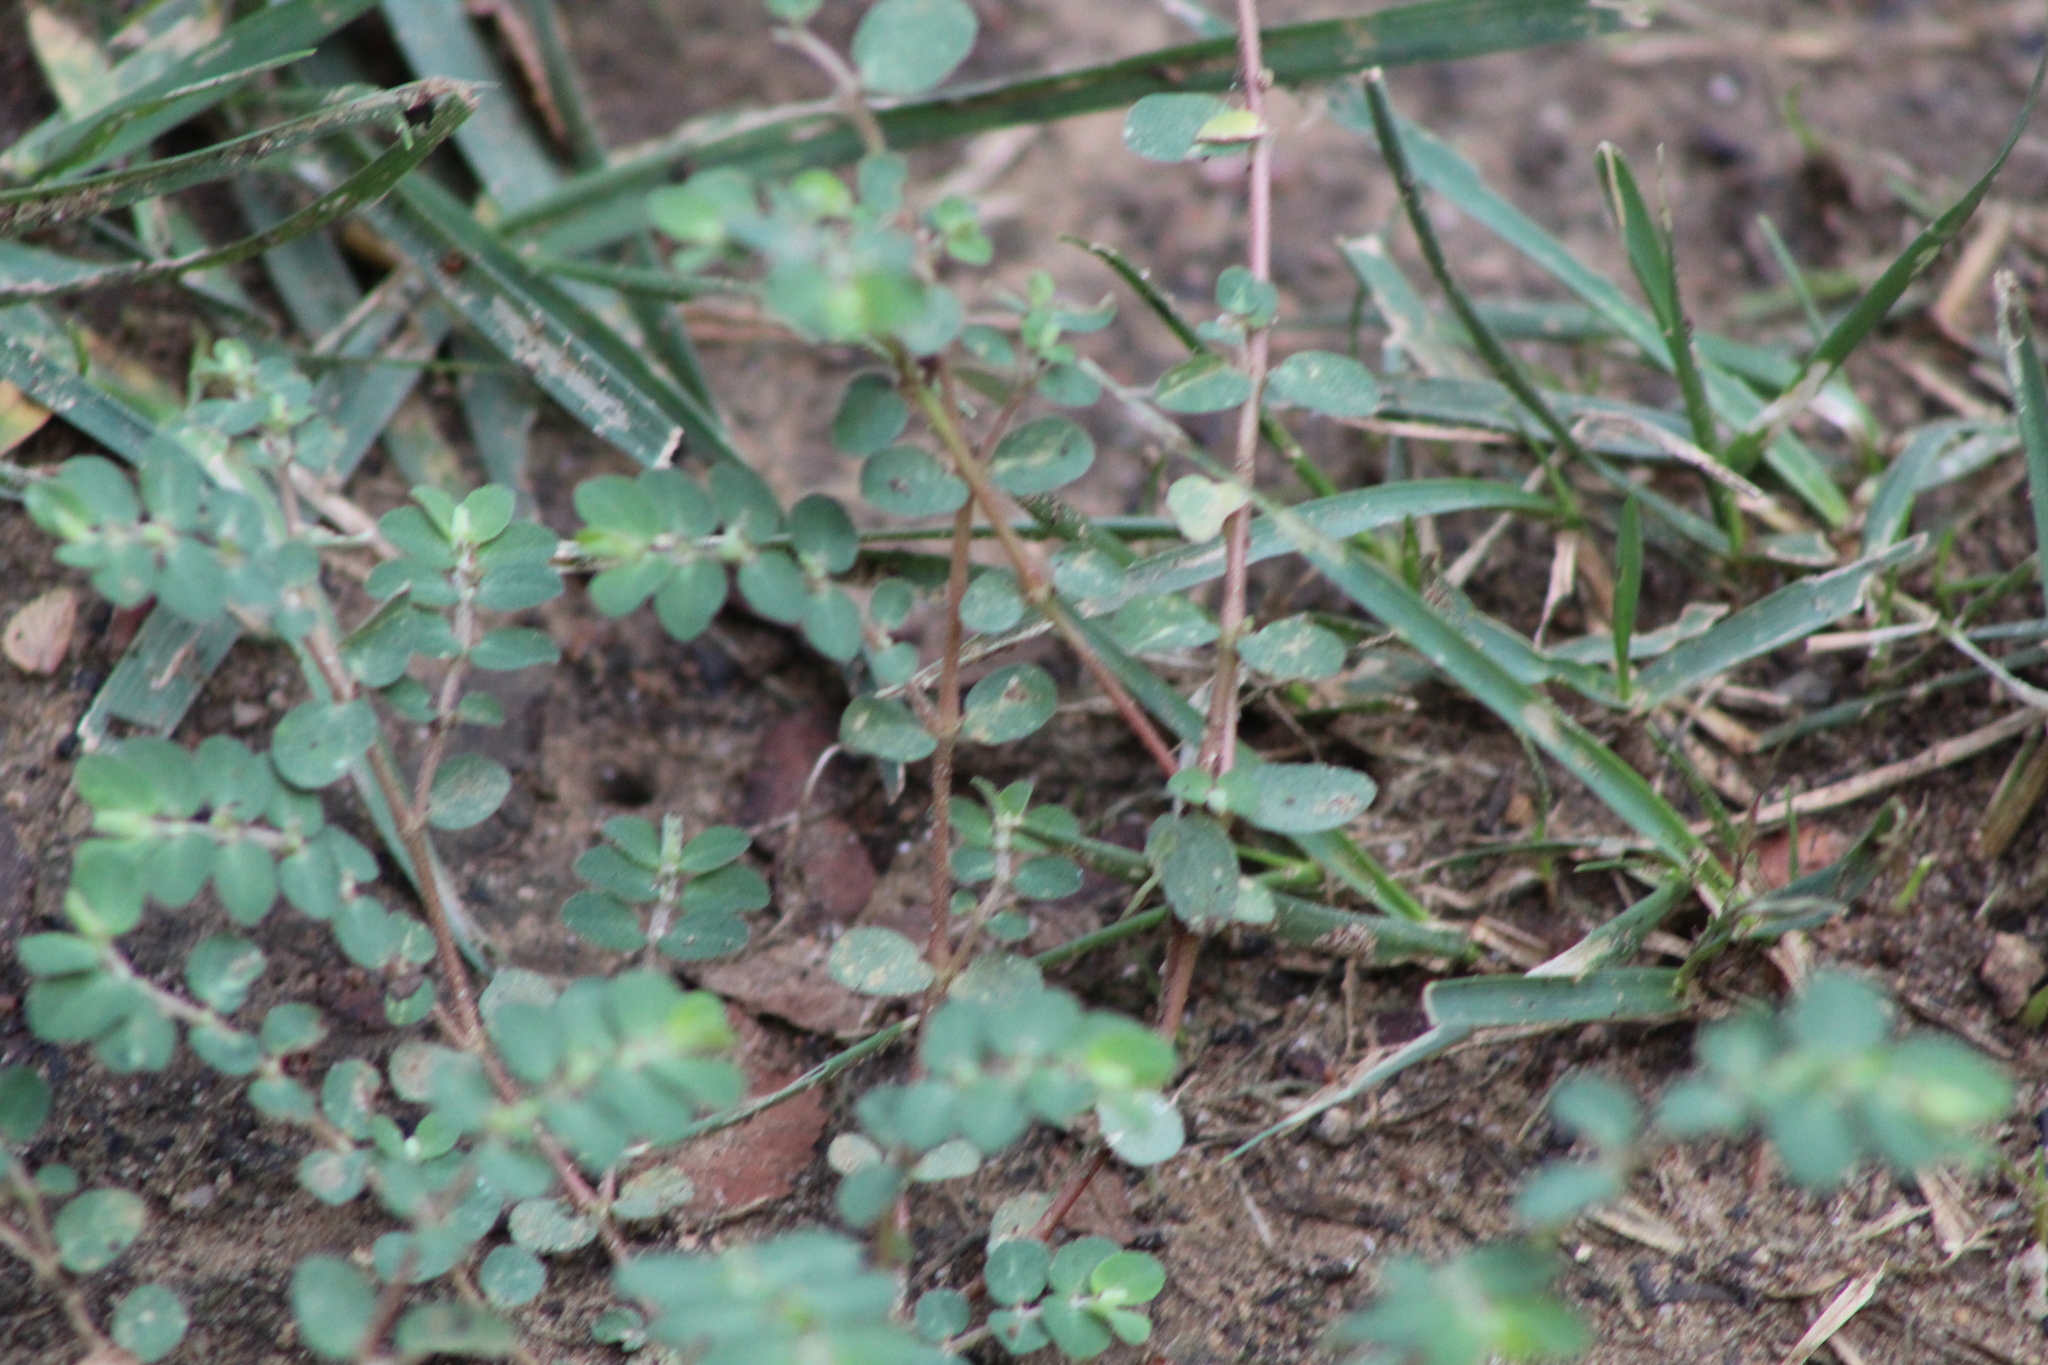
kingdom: Plantae
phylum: Tracheophyta
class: Magnoliopsida
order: Malpighiales
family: Euphorbiaceae
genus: Euphorbia
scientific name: Euphorbia prostrata
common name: Prostrate sandmat
